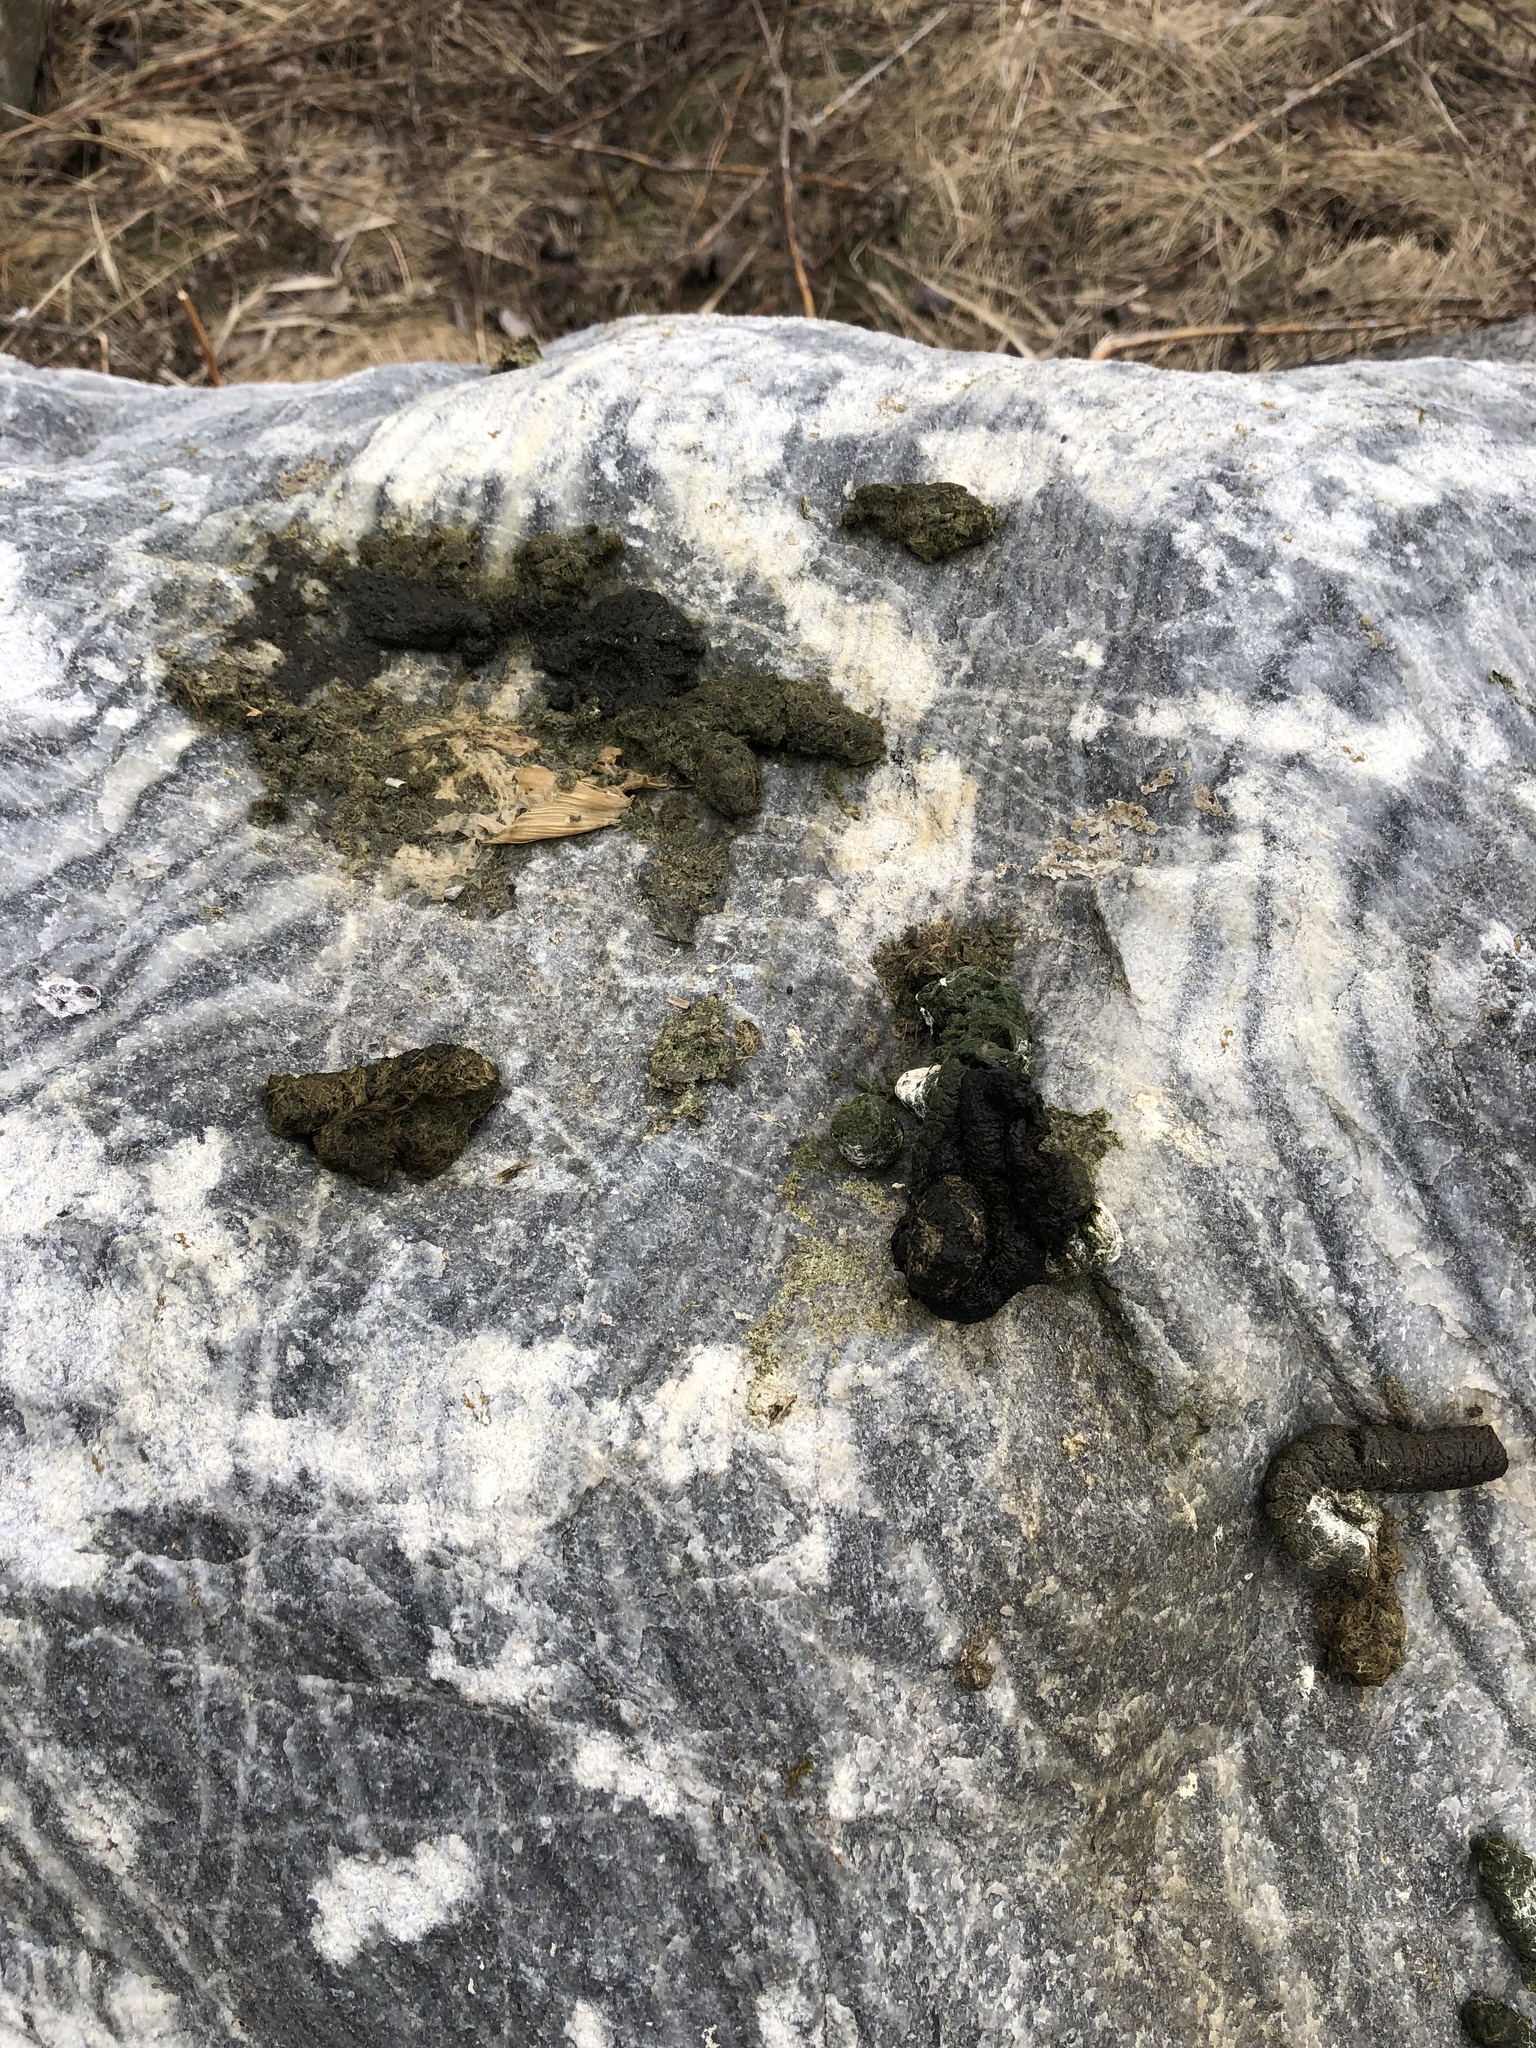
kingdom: Animalia
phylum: Chordata
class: Aves
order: Anseriformes
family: Anatidae
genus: Branta
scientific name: Branta canadensis
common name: Canada goose
